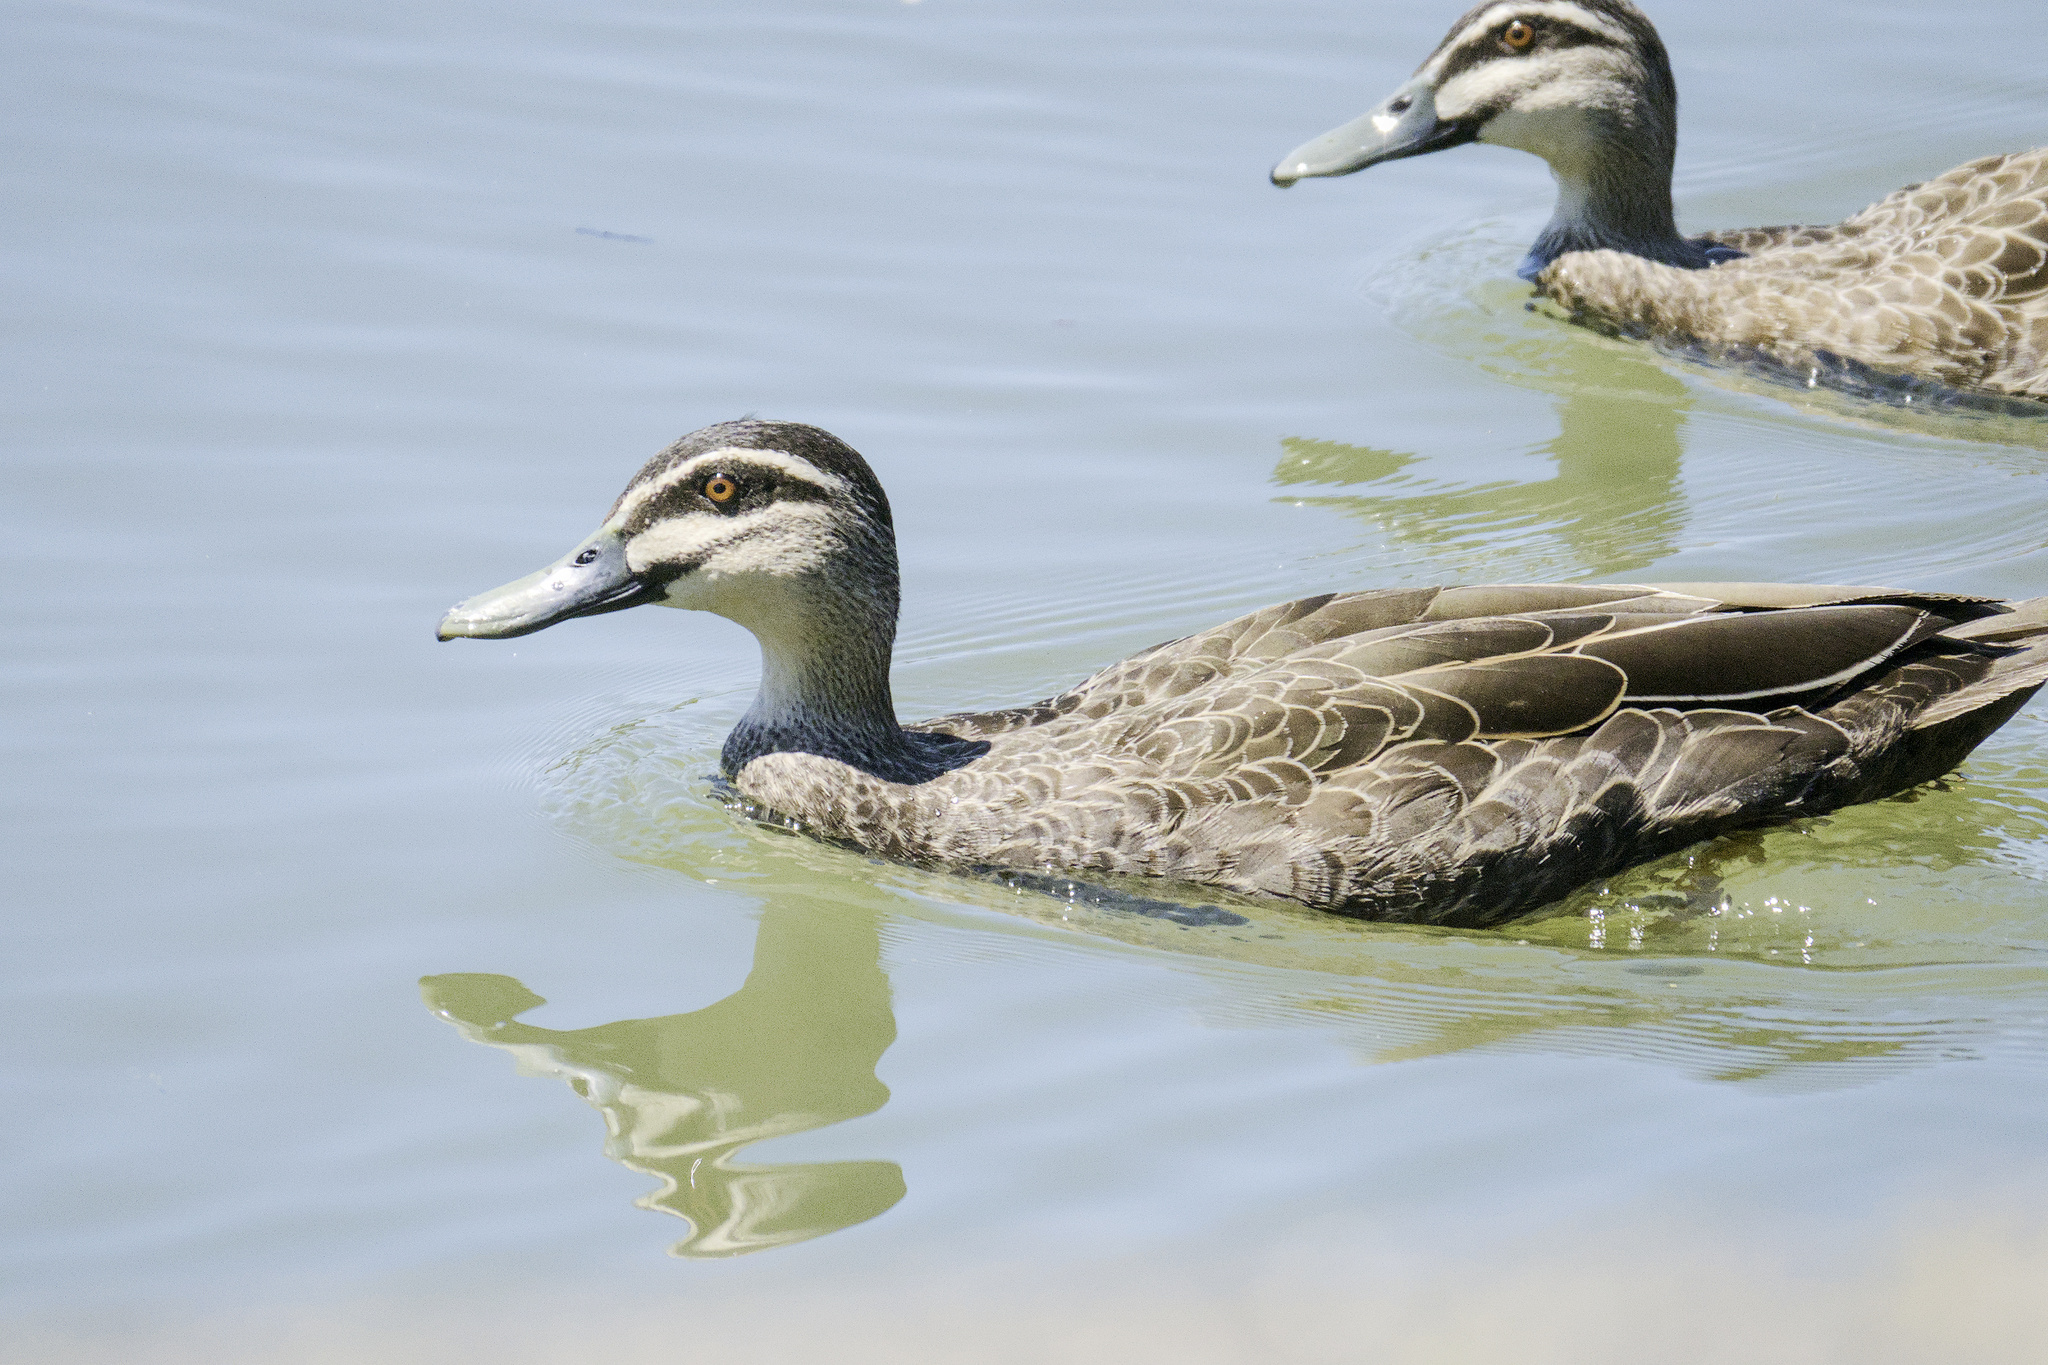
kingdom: Animalia
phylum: Chordata
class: Aves
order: Anseriformes
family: Anatidae
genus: Anas
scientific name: Anas superciliosa
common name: Pacific black duck
